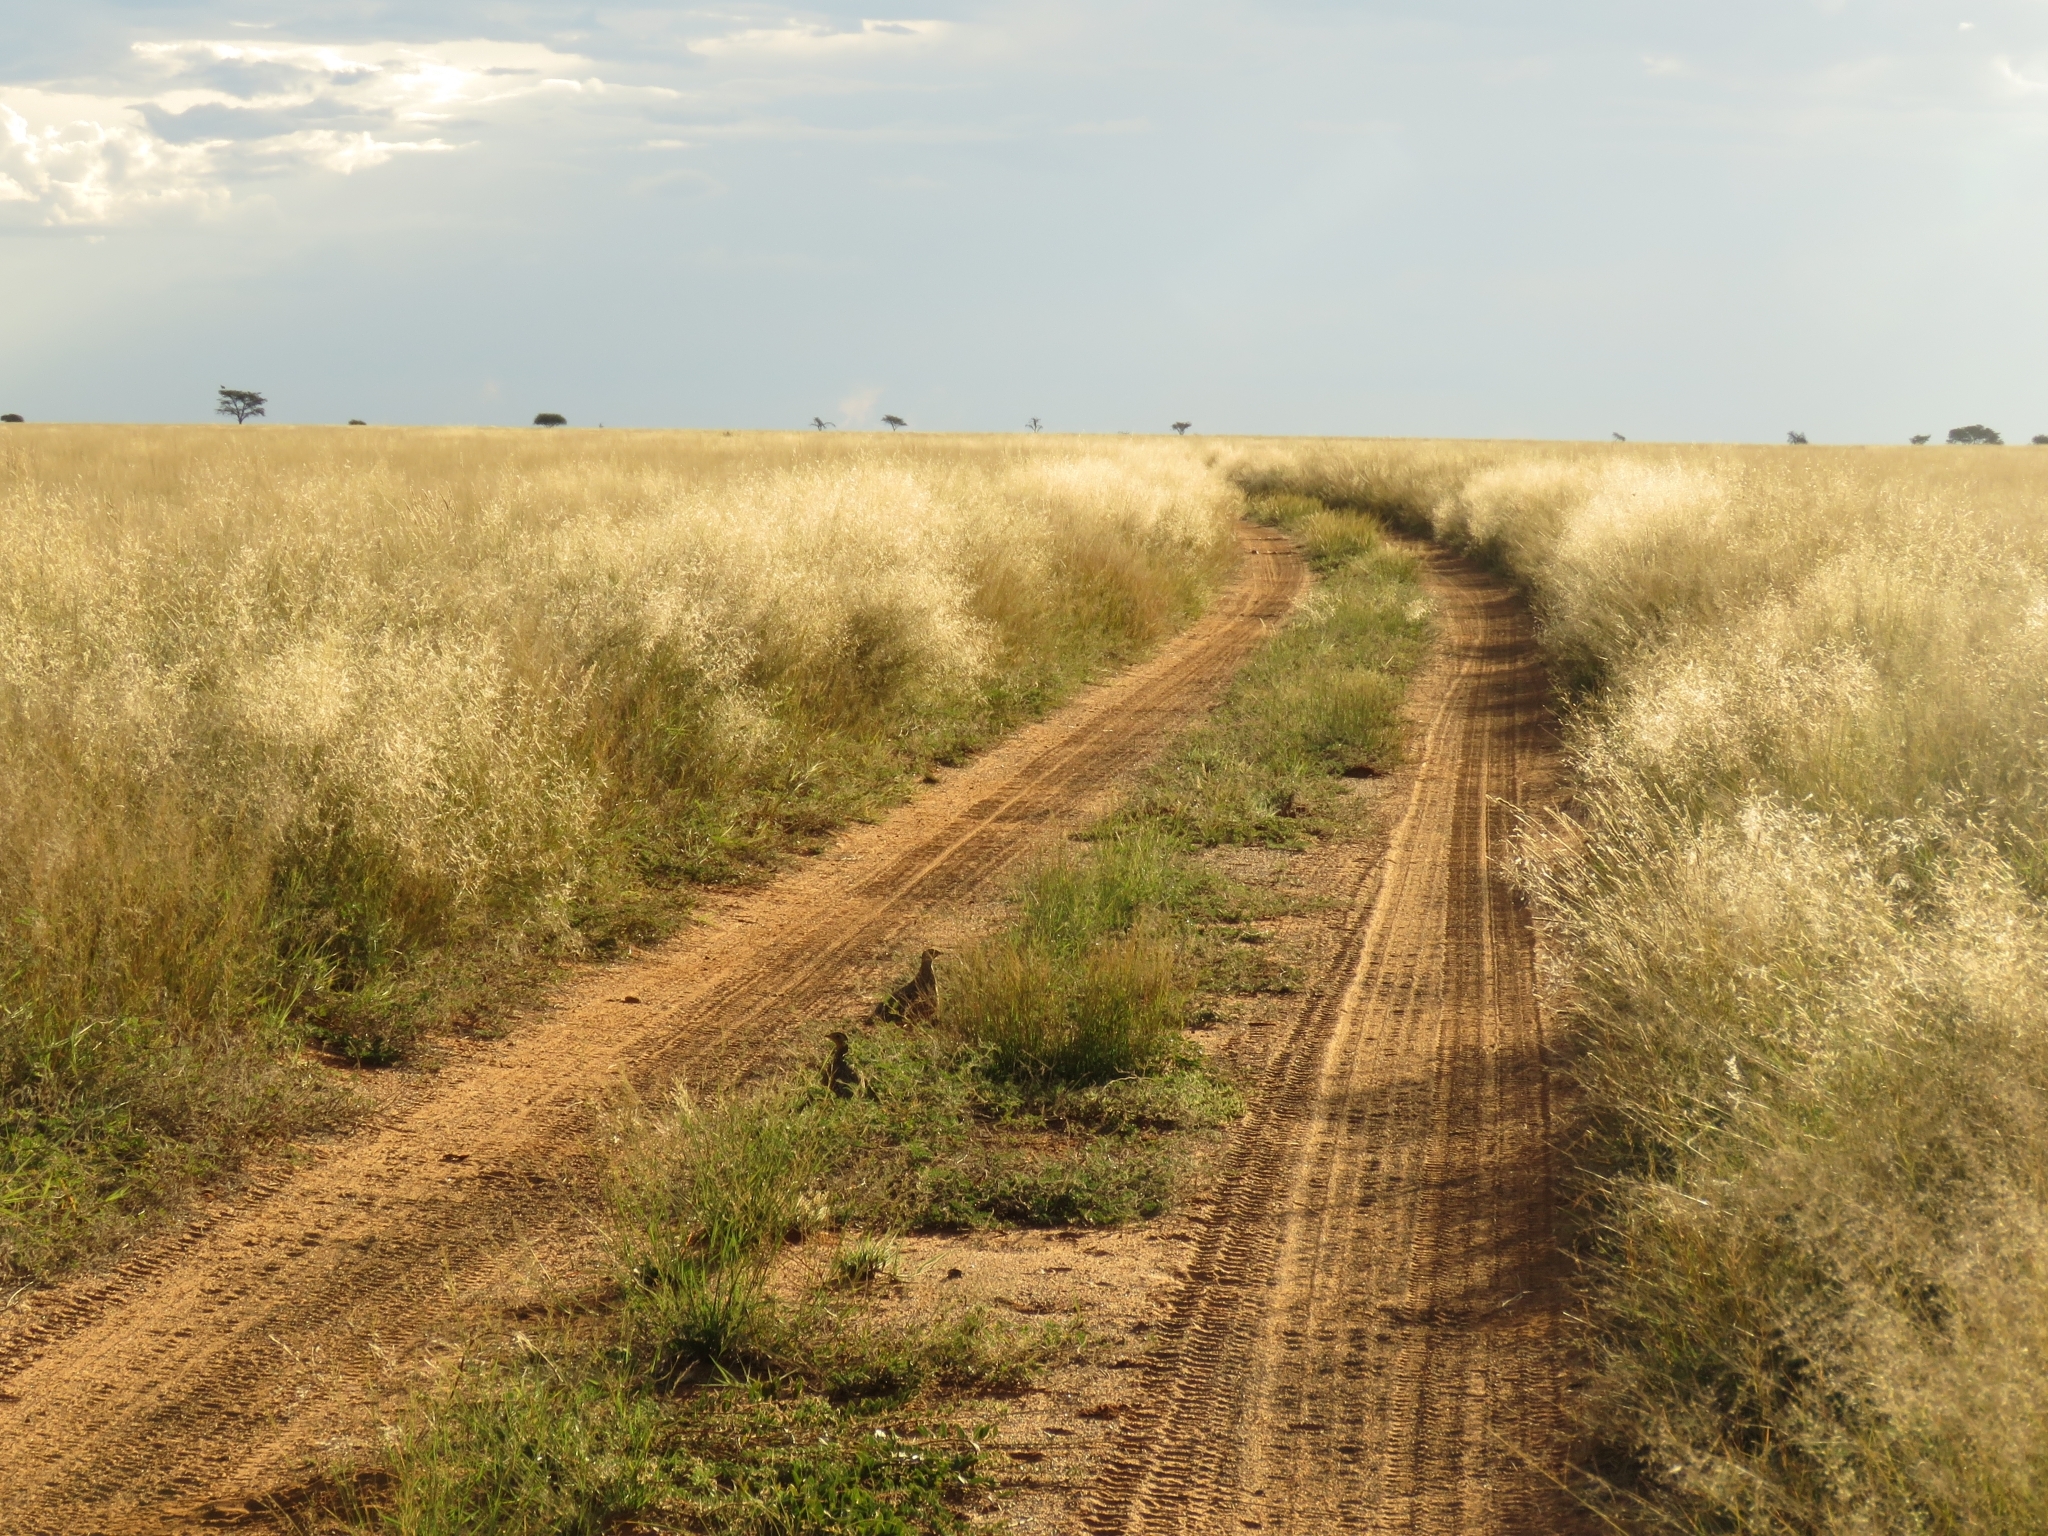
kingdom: Animalia
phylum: Chordata
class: Aves
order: Pteroclidiformes
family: Pteroclididae
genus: Pterocles
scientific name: Pterocles burchelli
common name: Burchell's sandgrouse
